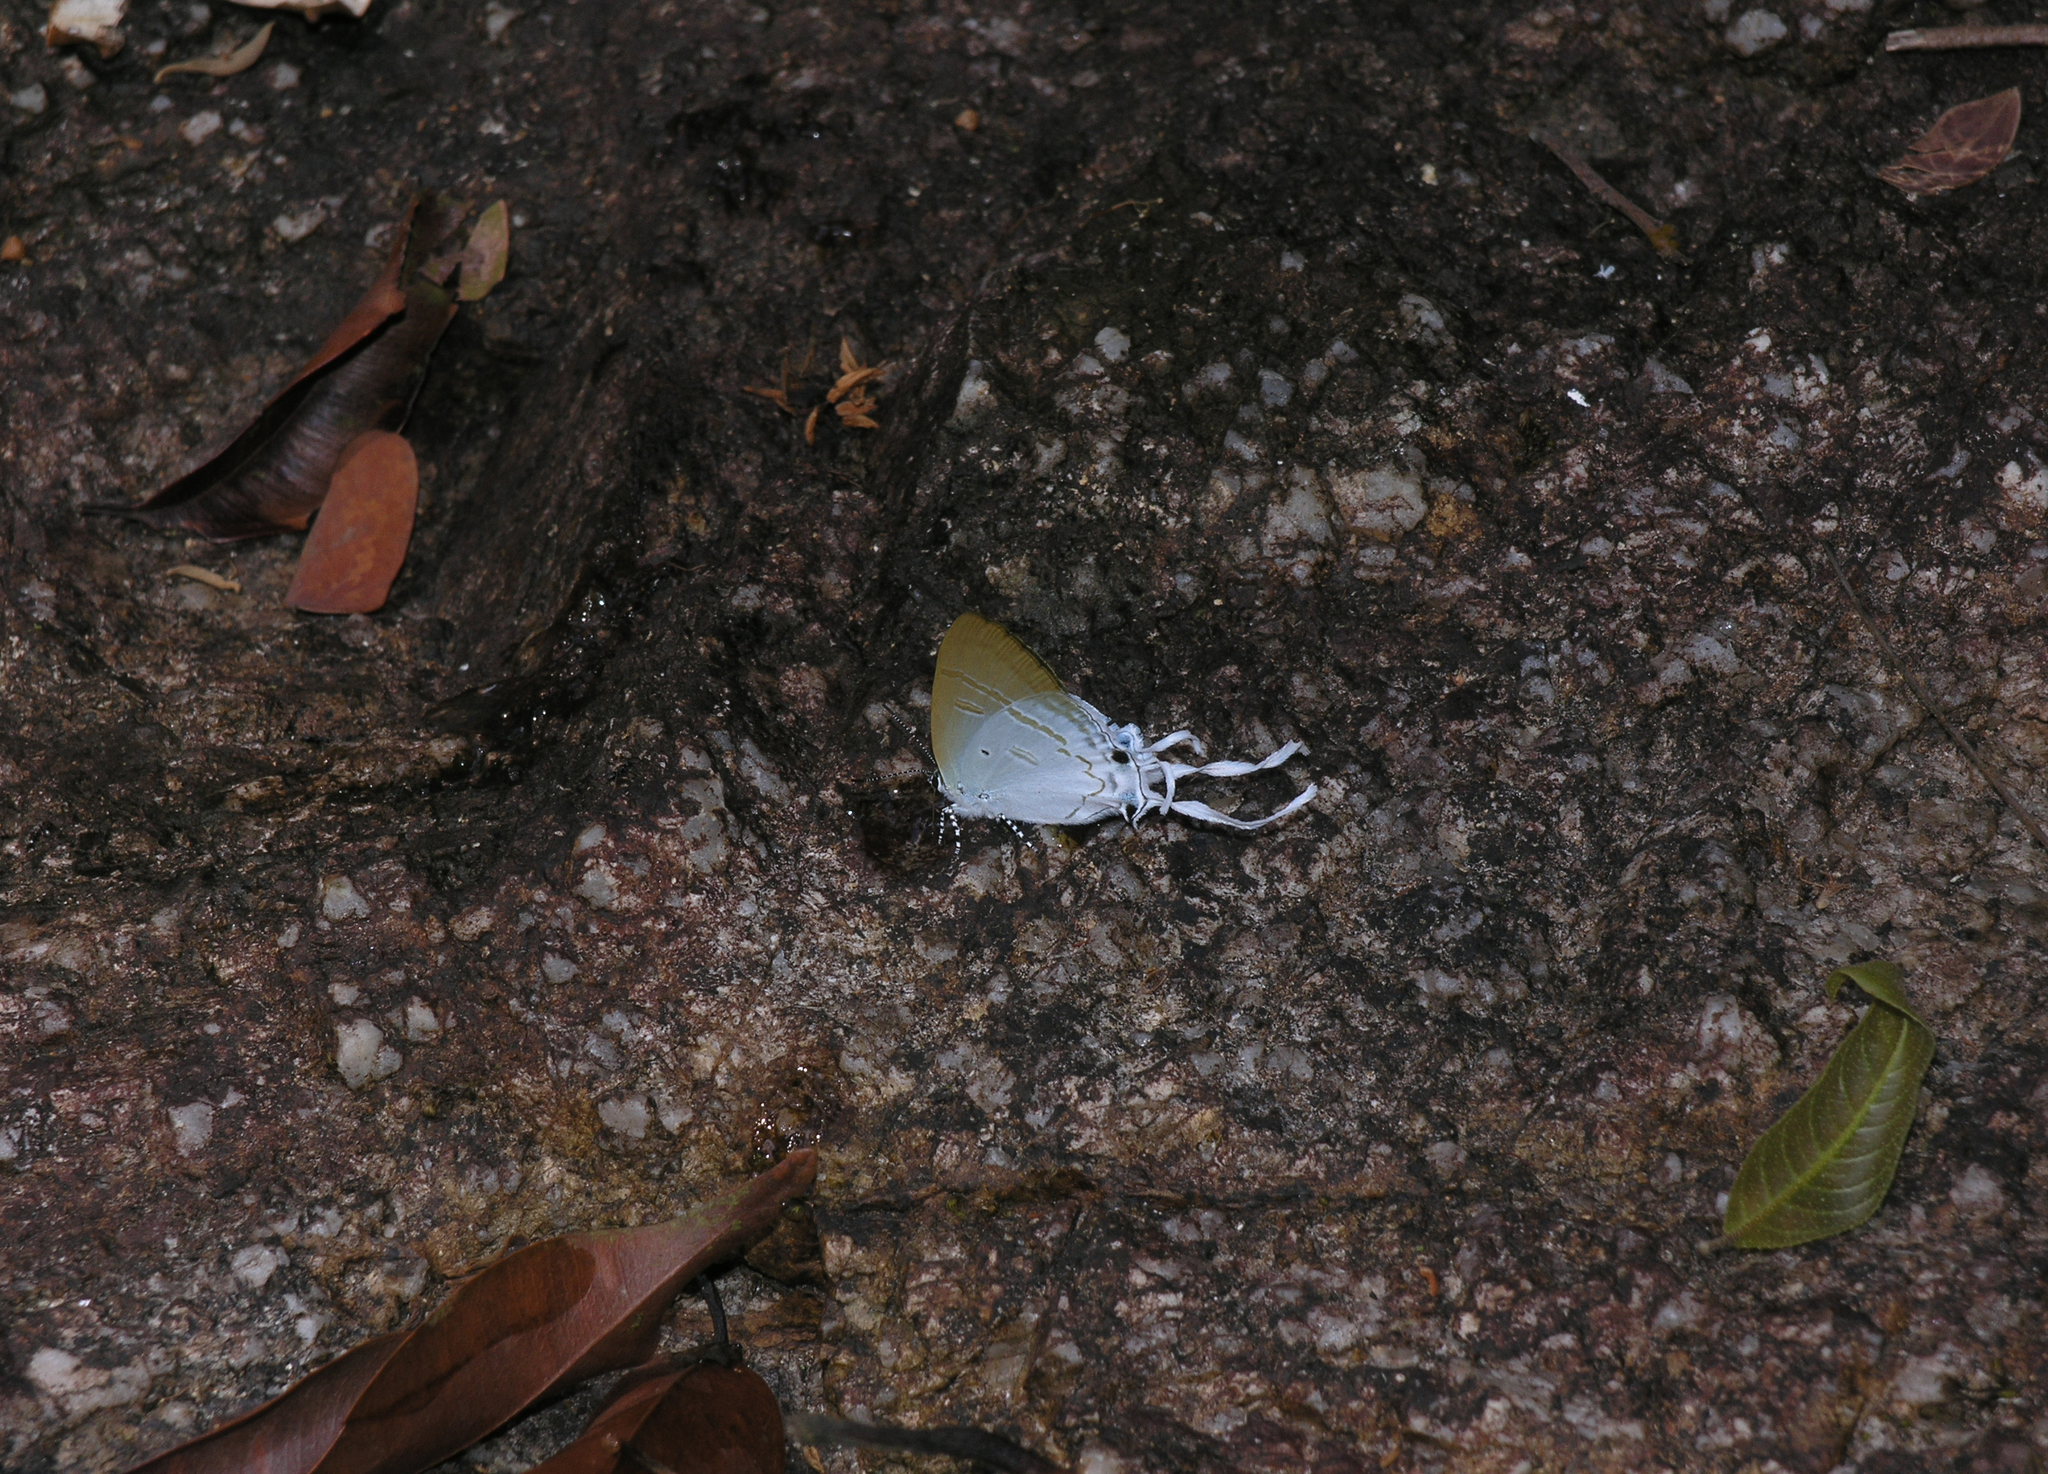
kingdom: Animalia
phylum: Arthropoda
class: Insecta
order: Lepidoptera
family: Lycaenidae
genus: Zeltus
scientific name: Zeltus amasa
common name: Fluffy tit
